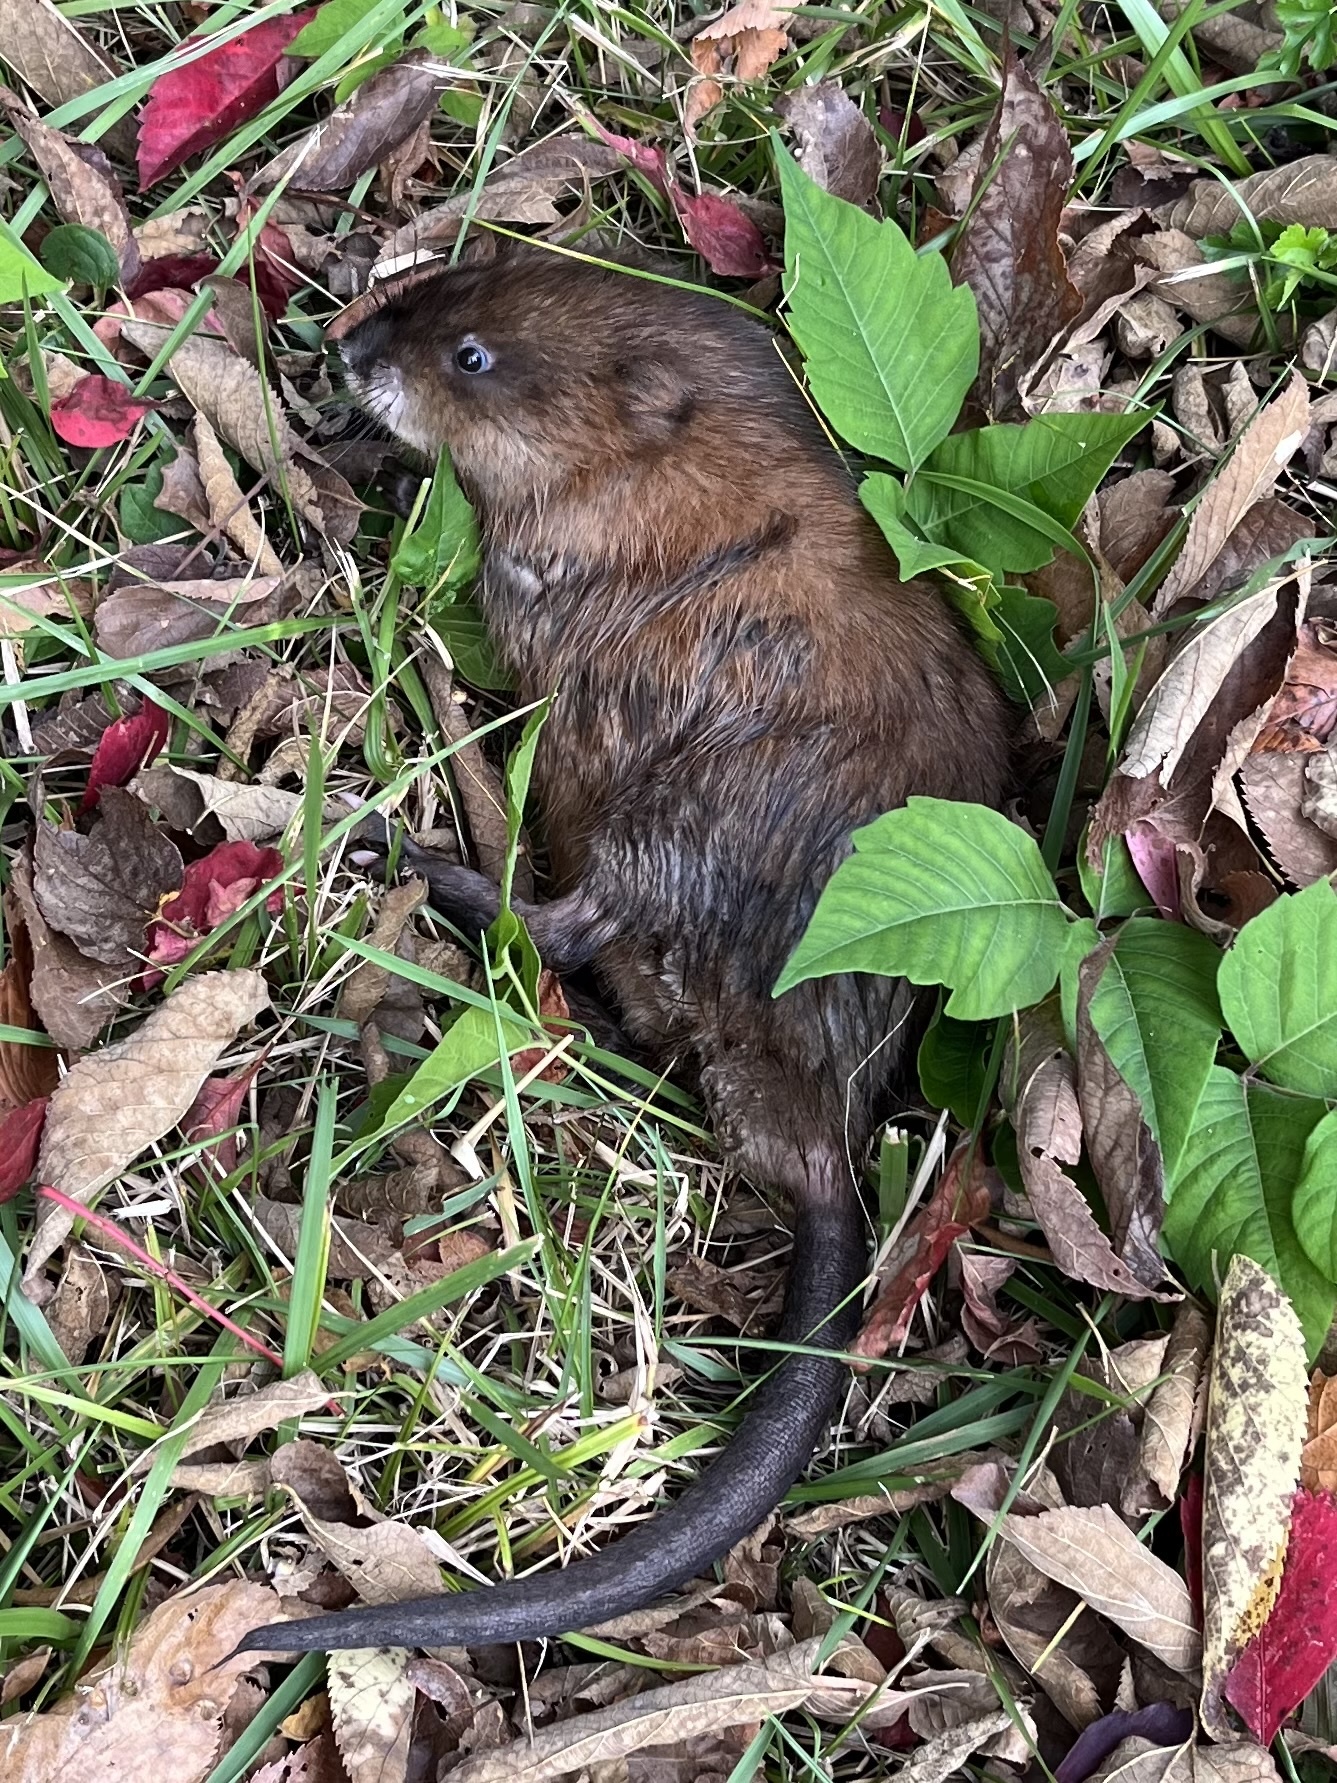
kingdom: Animalia
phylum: Chordata
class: Mammalia
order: Rodentia
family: Cricetidae
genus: Ondatra
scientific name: Ondatra zibethicus
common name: Muskrat
